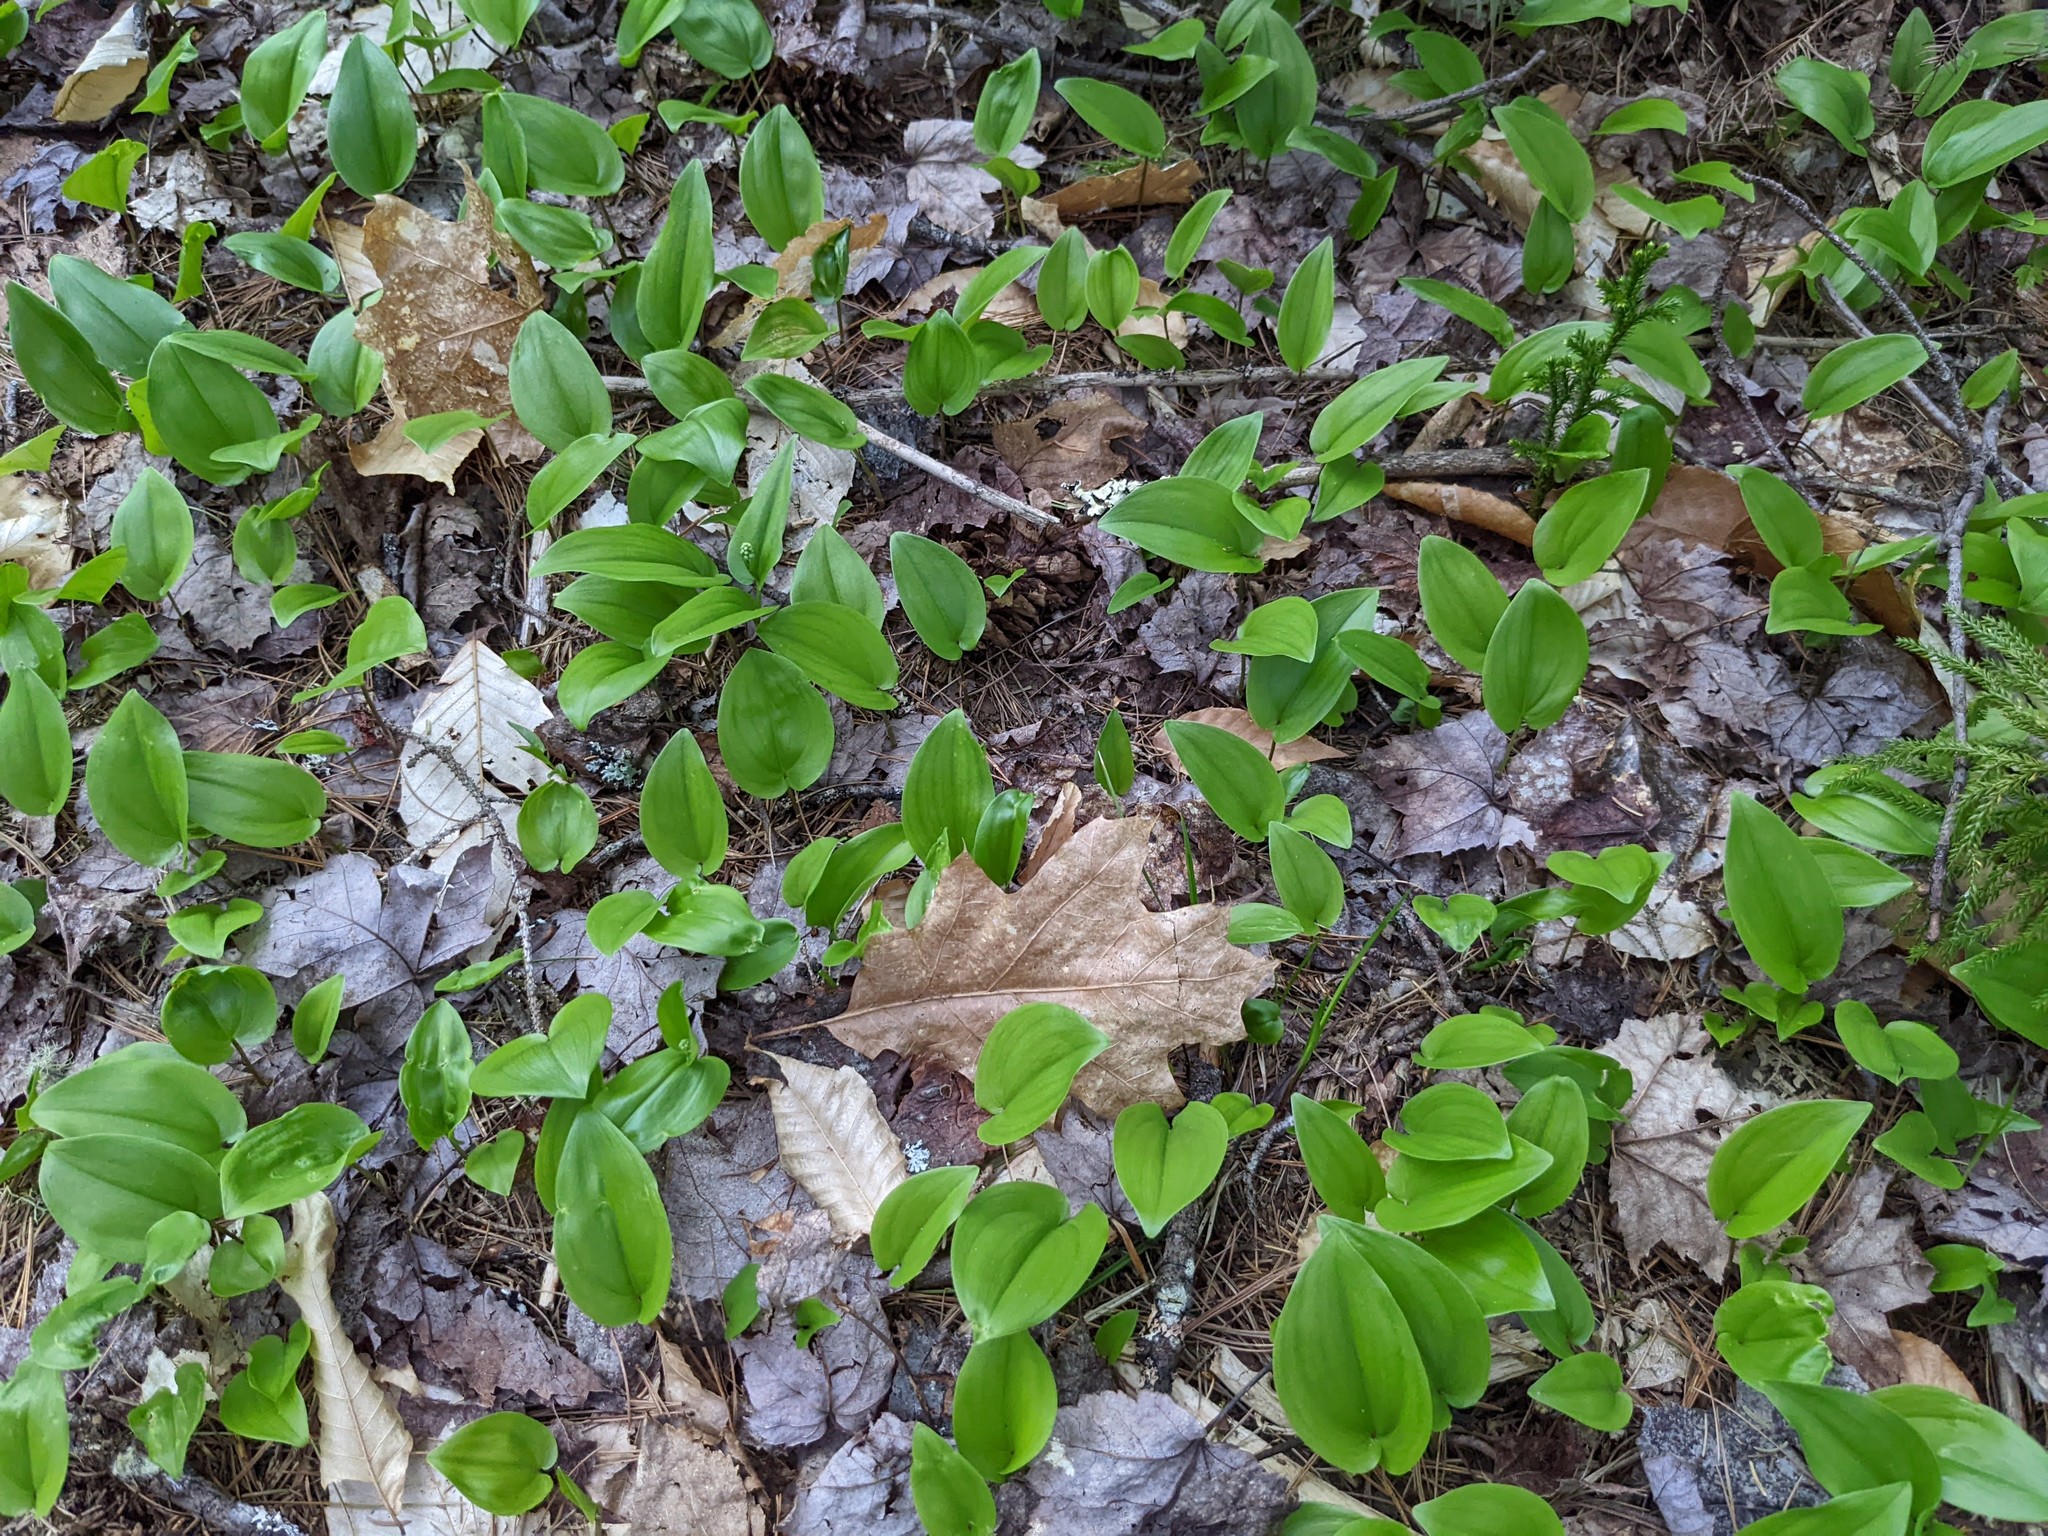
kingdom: Plantae
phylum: Tracheophyta
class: Liliopsida
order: Asparagales
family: Asparagaceae
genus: Maianthemum
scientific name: Maianthemum canadense
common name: False lily-of-the-valley
